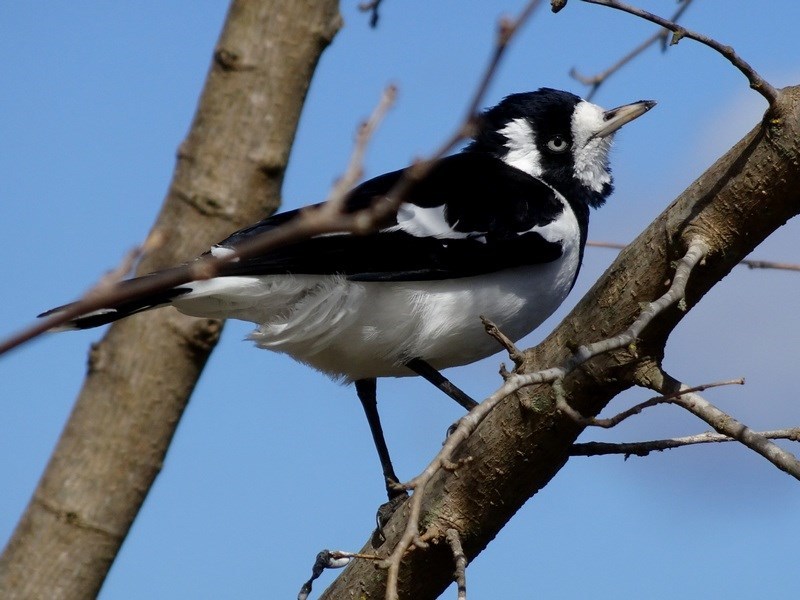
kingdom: Animalia
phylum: Chordata
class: Aves
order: Passeriformes
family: Monarchidae
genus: Grallina
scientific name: Grallina cyanoleuca
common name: Magpie-lark
